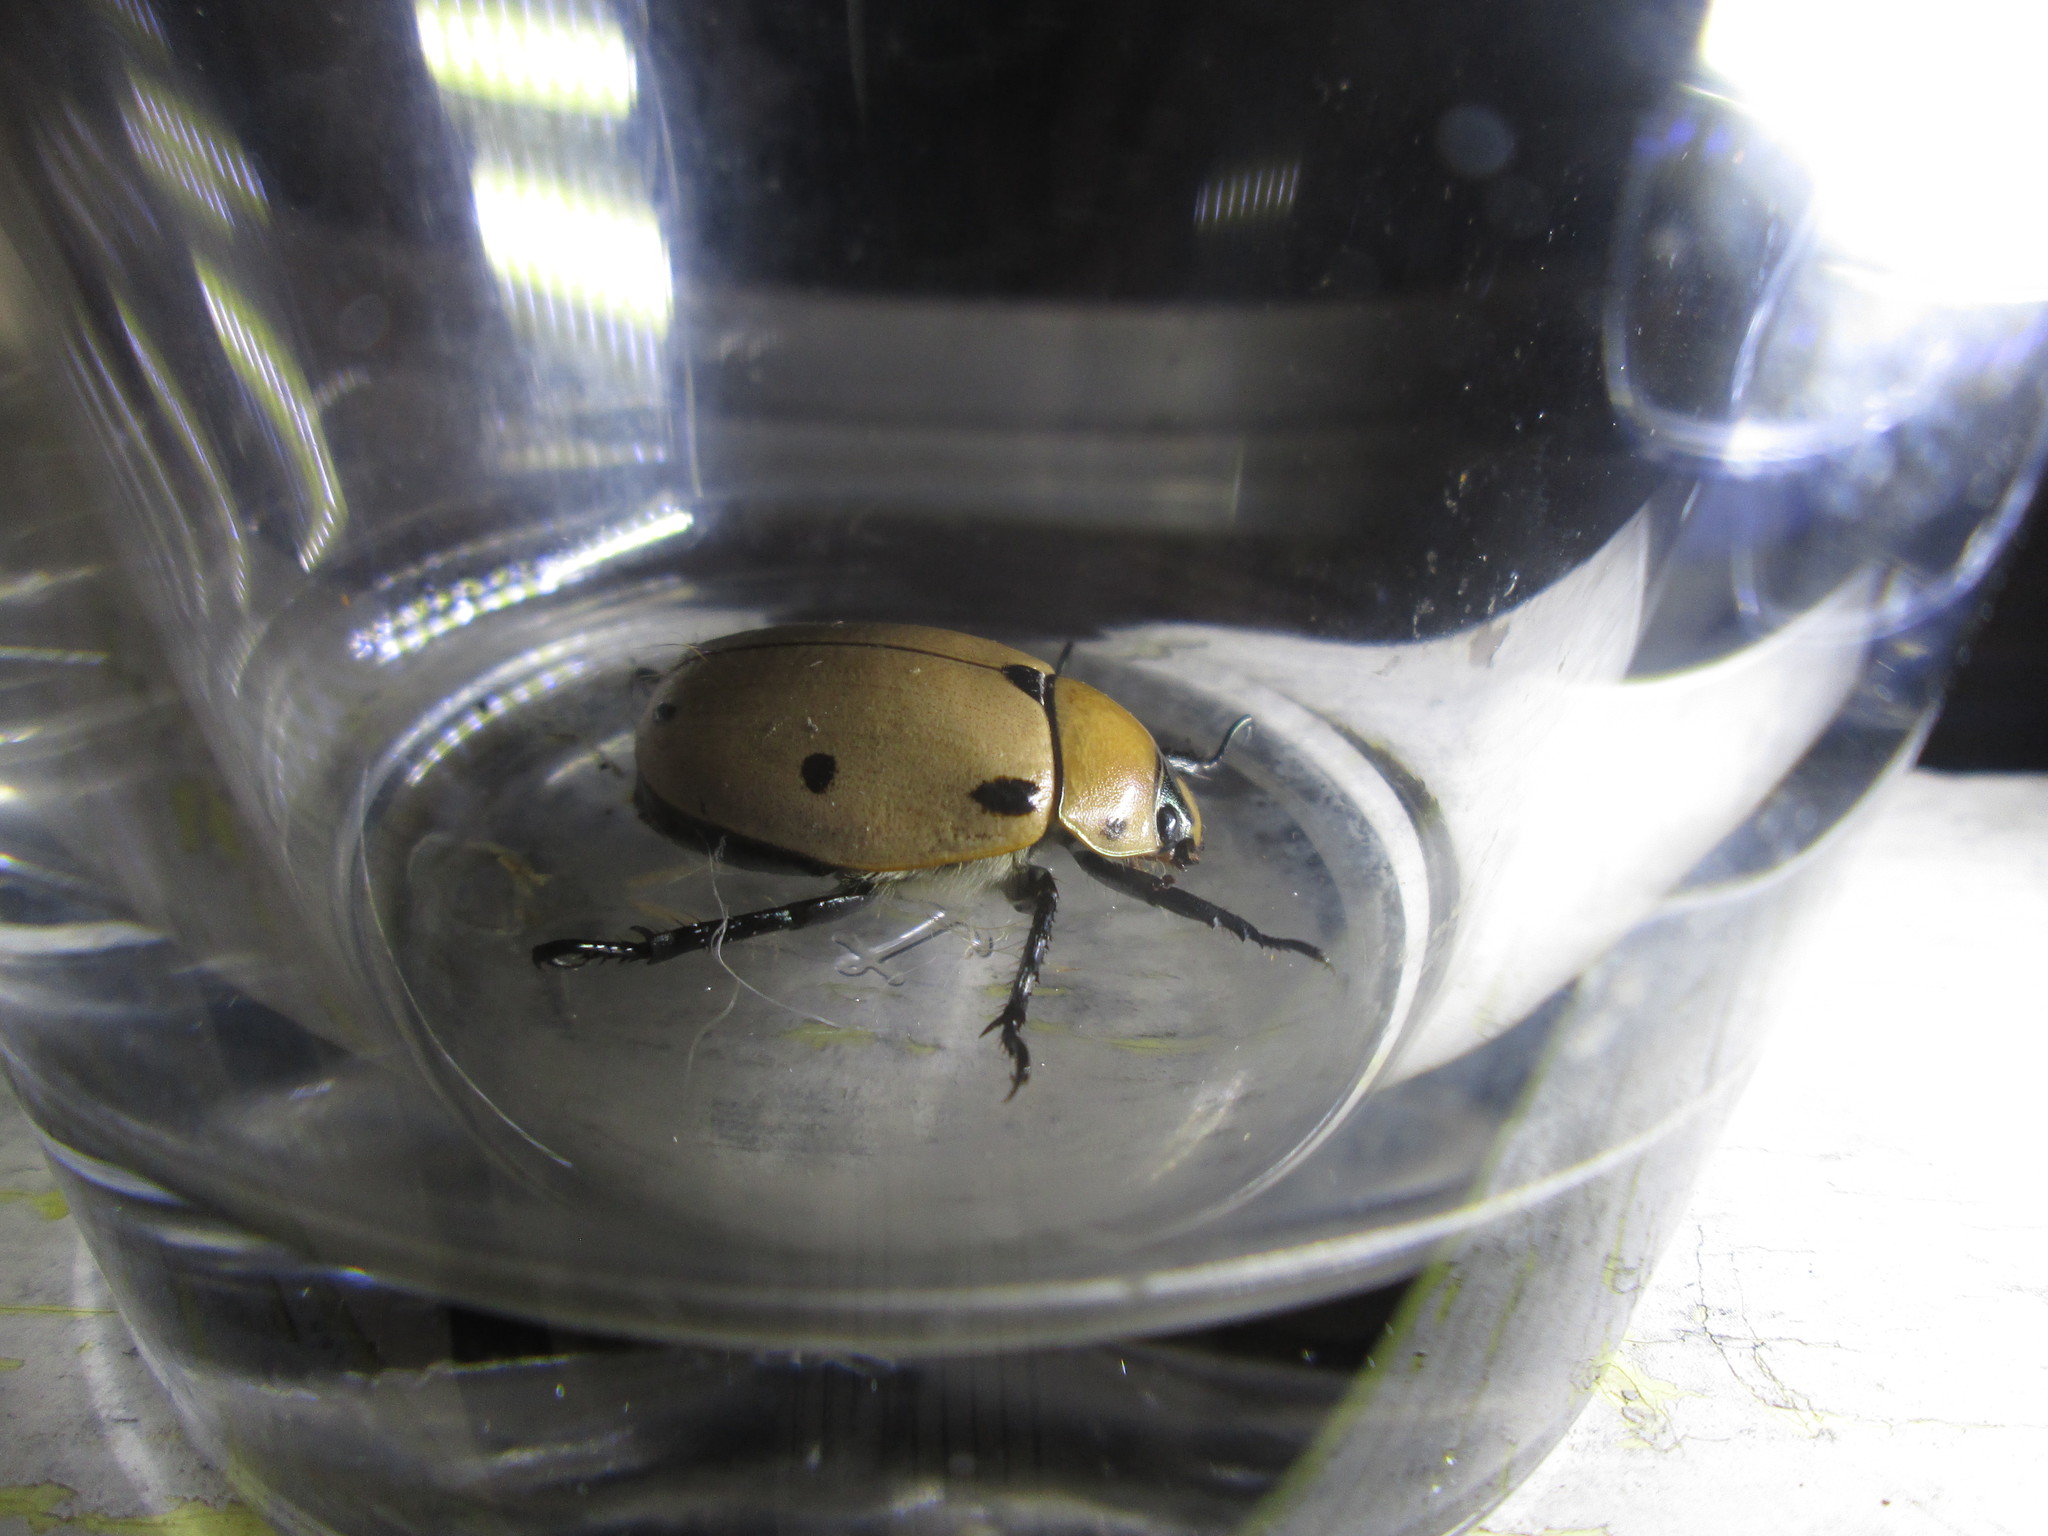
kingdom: Animalia
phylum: Arthropoda
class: Insecta
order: Coleoptera
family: Scarabaeidae
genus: Pelidnota
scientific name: Pelidnota punctata
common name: Grapevine beetle
